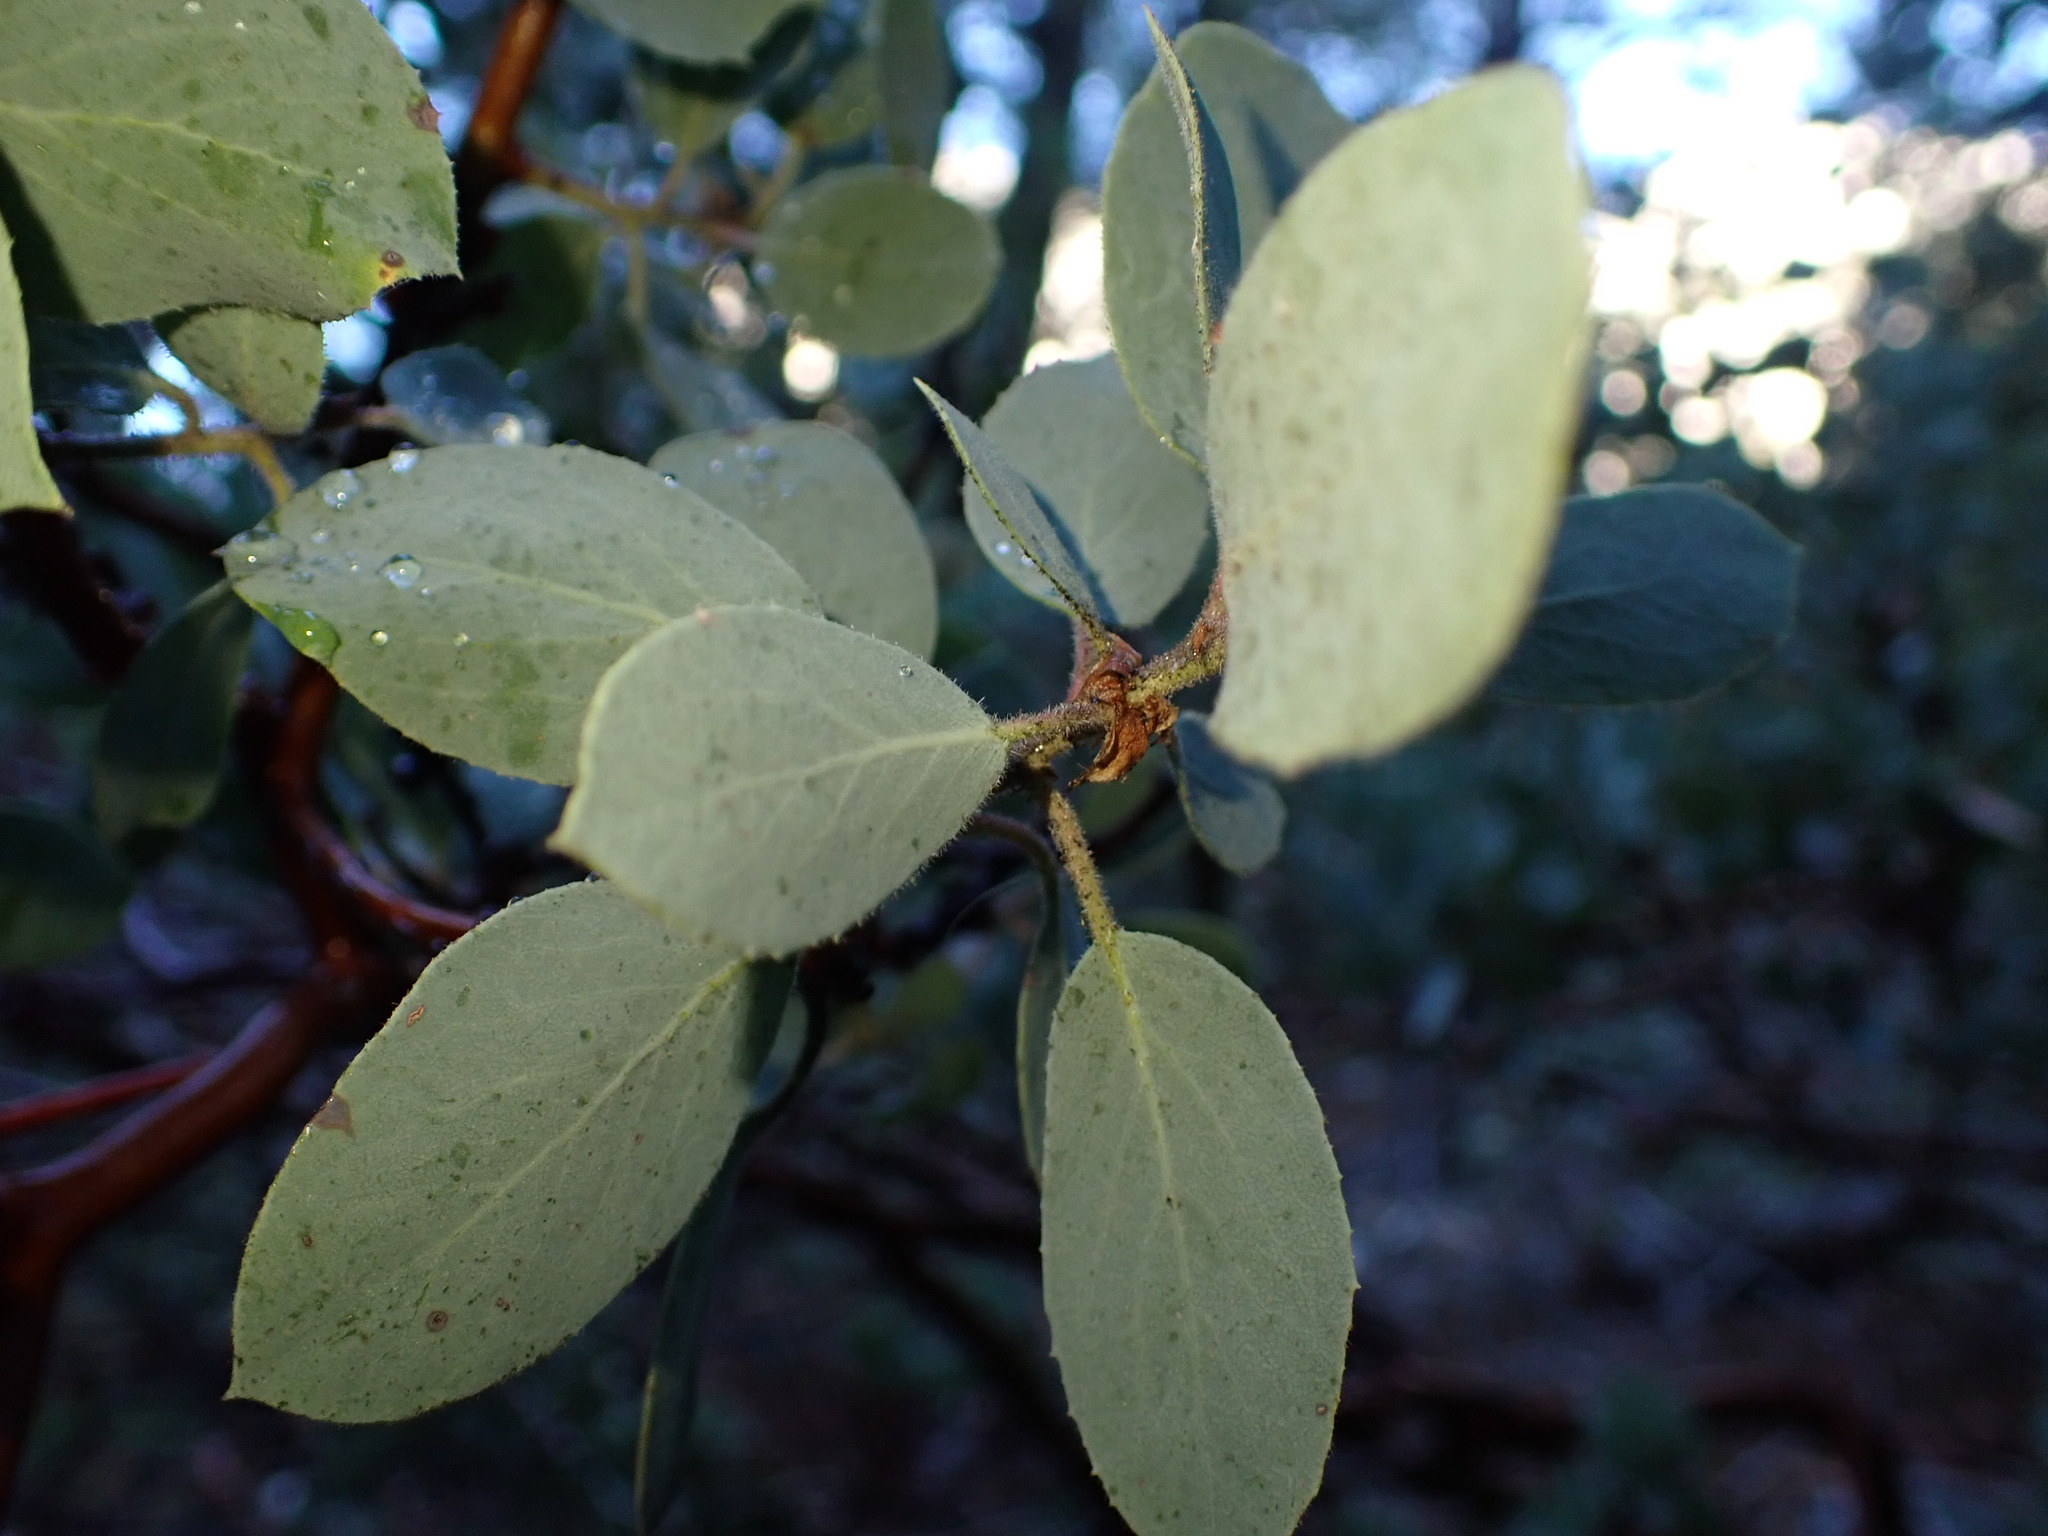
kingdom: Plantae
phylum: Tracheophyta
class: Magnoliopsida
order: Ericales
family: Ericaceae
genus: Arctostaphylos
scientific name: Arctostaphylos viscida
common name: White-leaf manzanita
